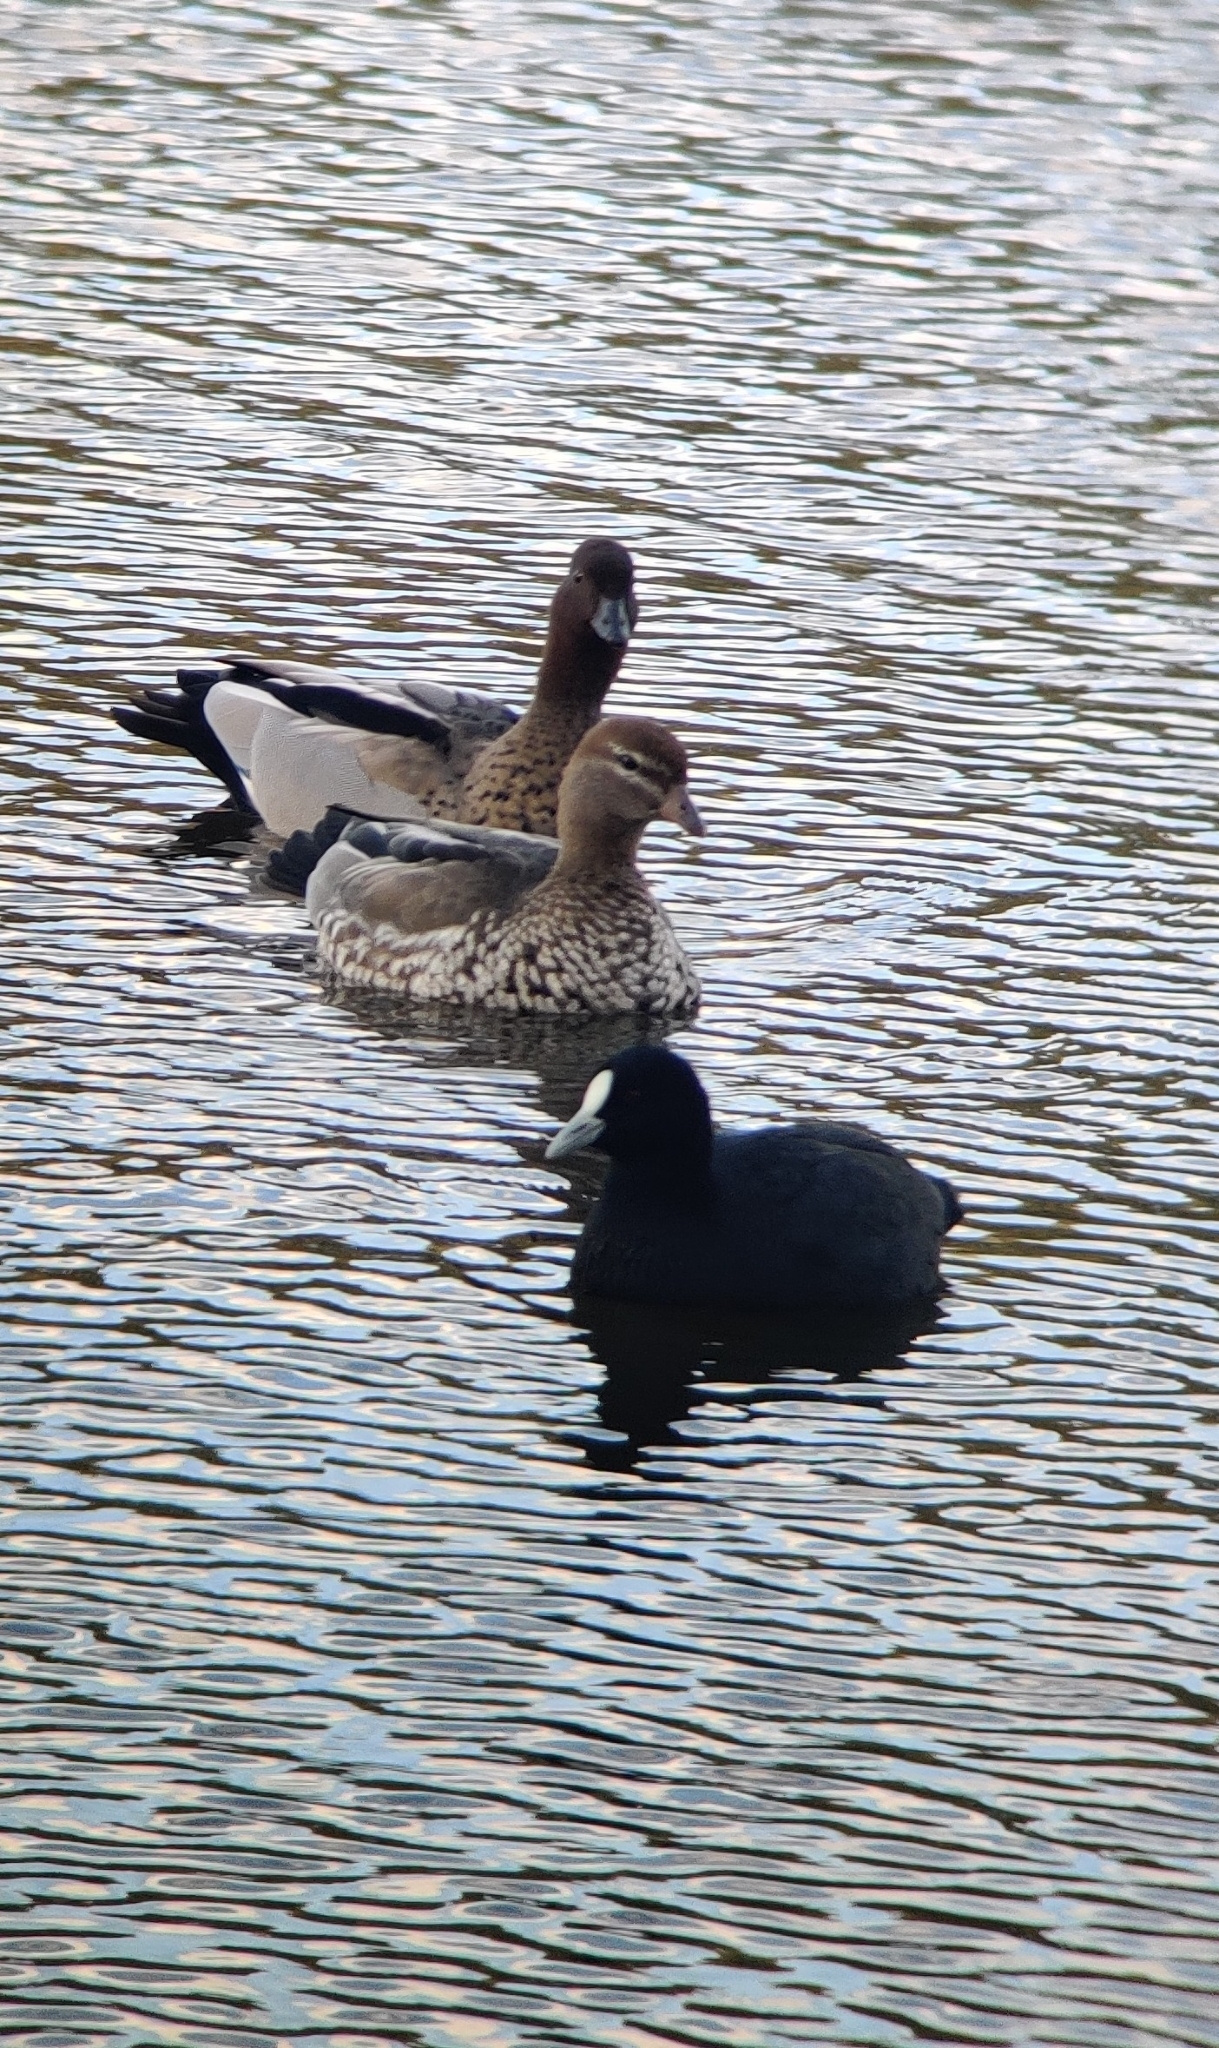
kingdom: Animalia
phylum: Chordata
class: Aves
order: Anseriformes
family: Anatidae
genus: Chenonetta
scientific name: Chenonetta jubata
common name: Maned duck
